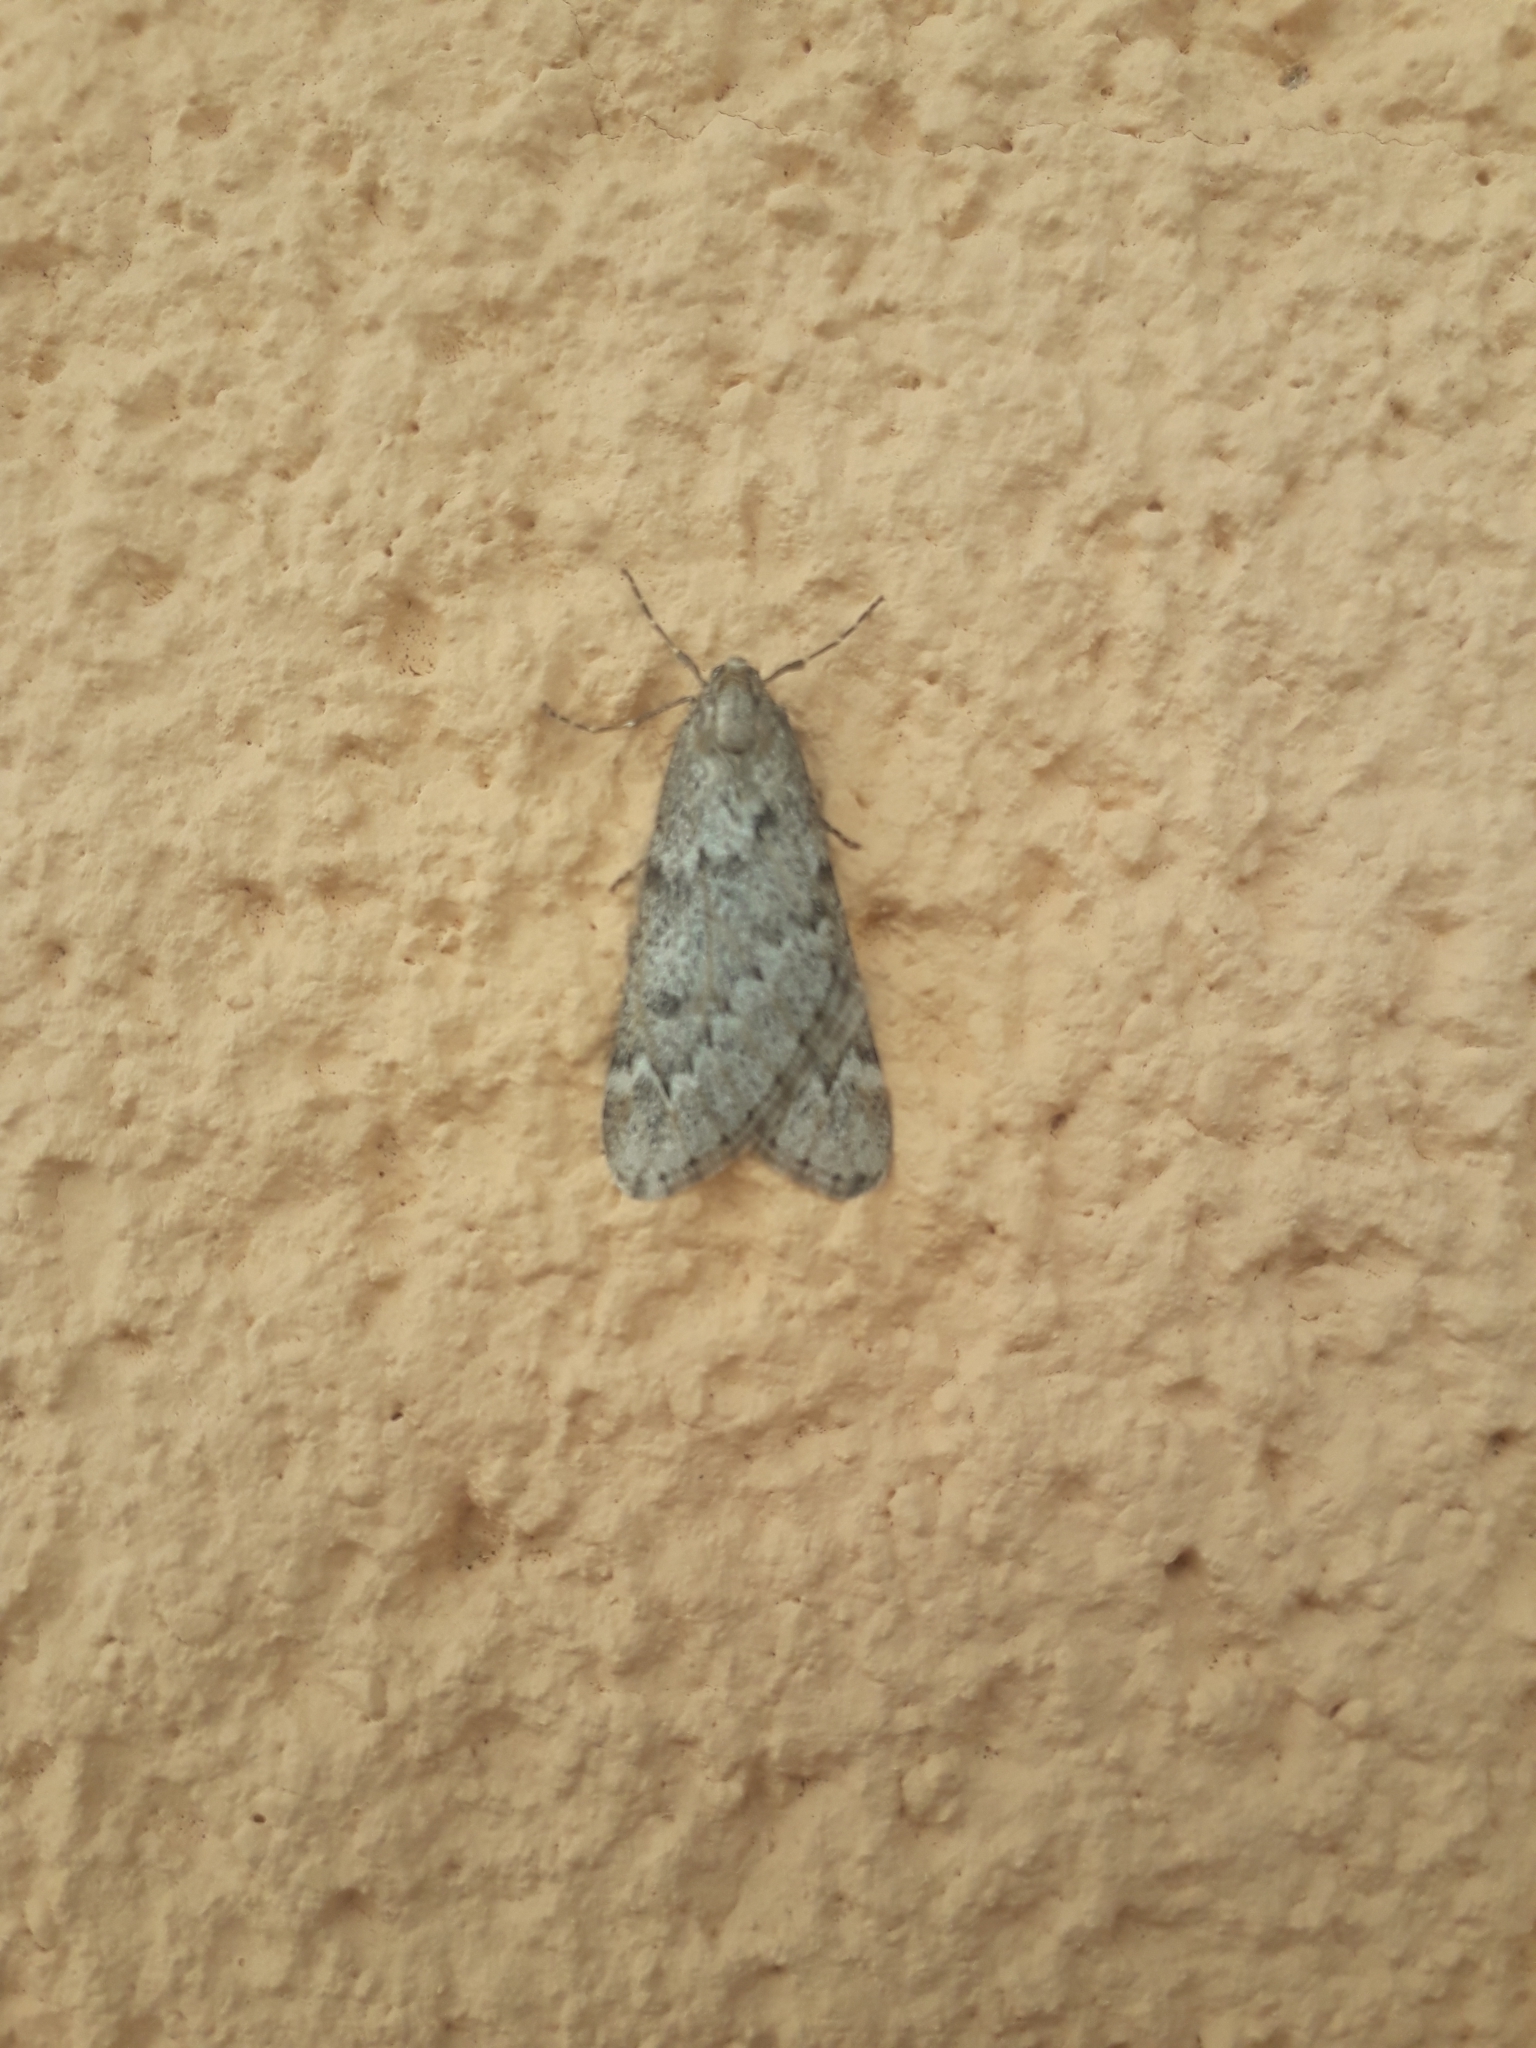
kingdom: Animalia
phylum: Arthropoda
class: Insecta
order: Lepidoptera
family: Geometridae
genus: Alsophila
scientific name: Alsophila aescularia
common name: March moth
